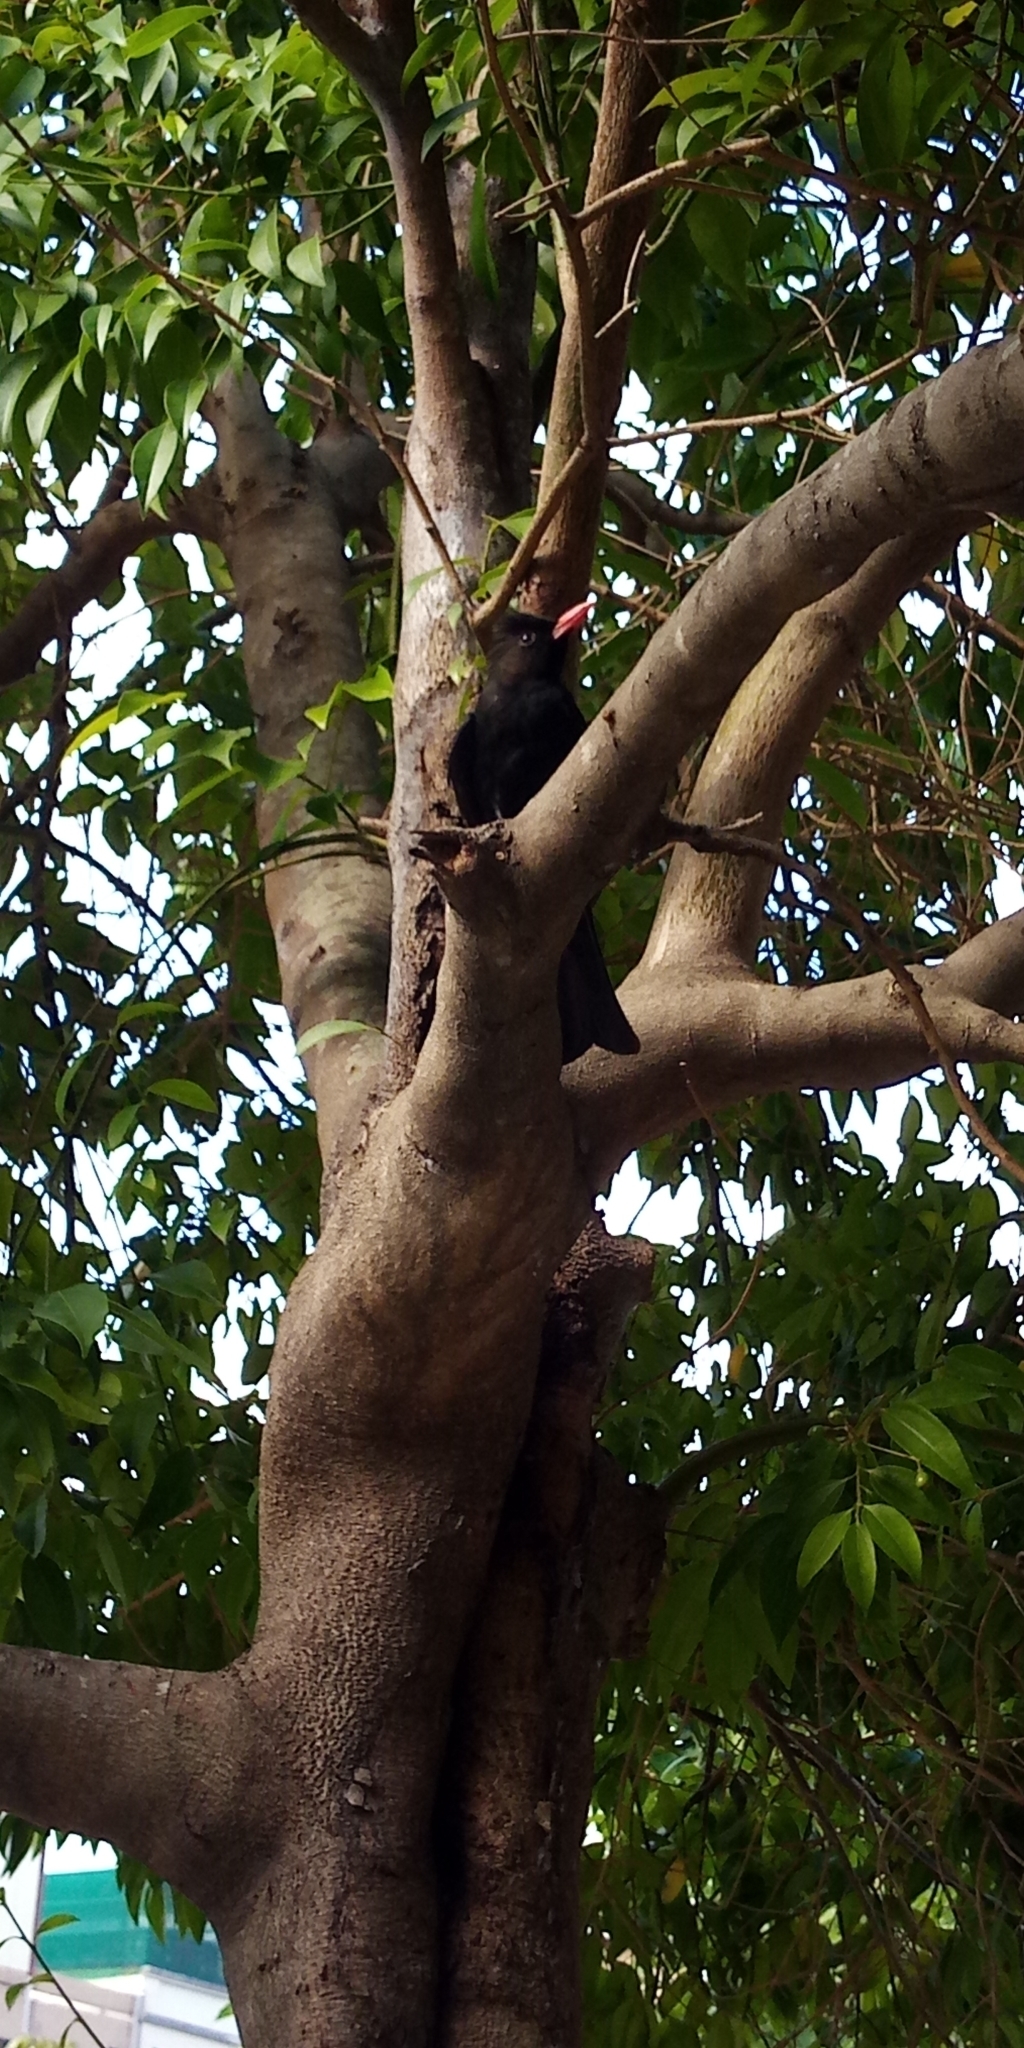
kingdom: Animalia
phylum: Chordata
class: Aves
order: Passeriformes
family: Pycnonotidae
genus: Hypsipetes
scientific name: Hypsipetes leucocephalus
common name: Black bulbul
